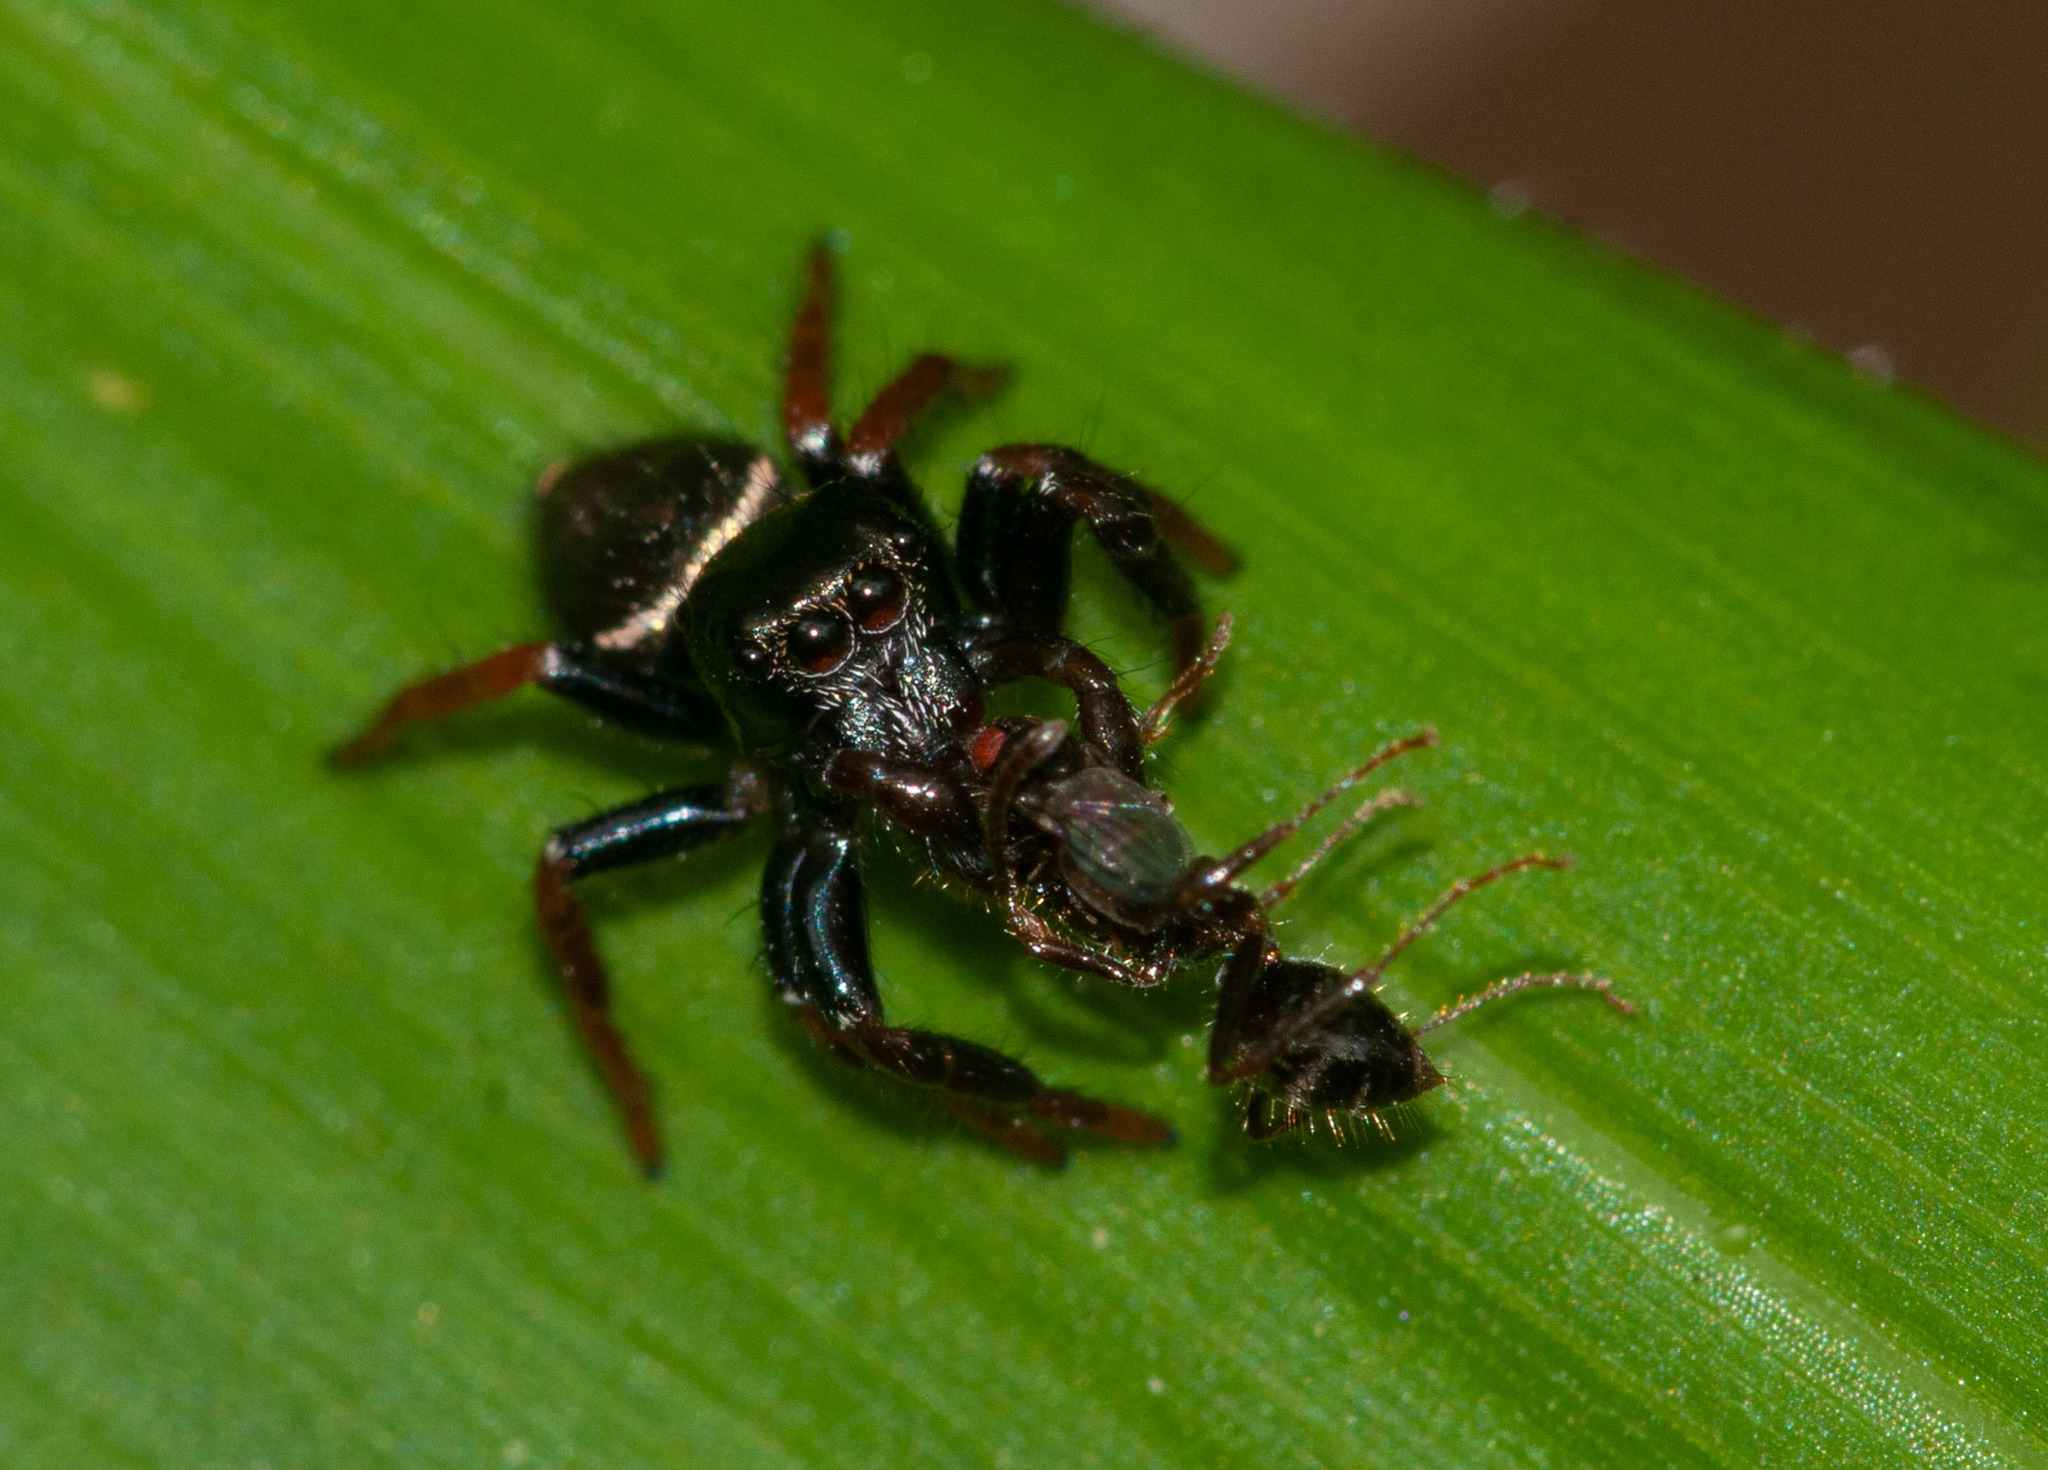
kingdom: Animalia
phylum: Arthropoda
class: Arachnida
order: Araneae
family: Salticidae
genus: Zenodorus
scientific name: Zenodorus orbiculatus
